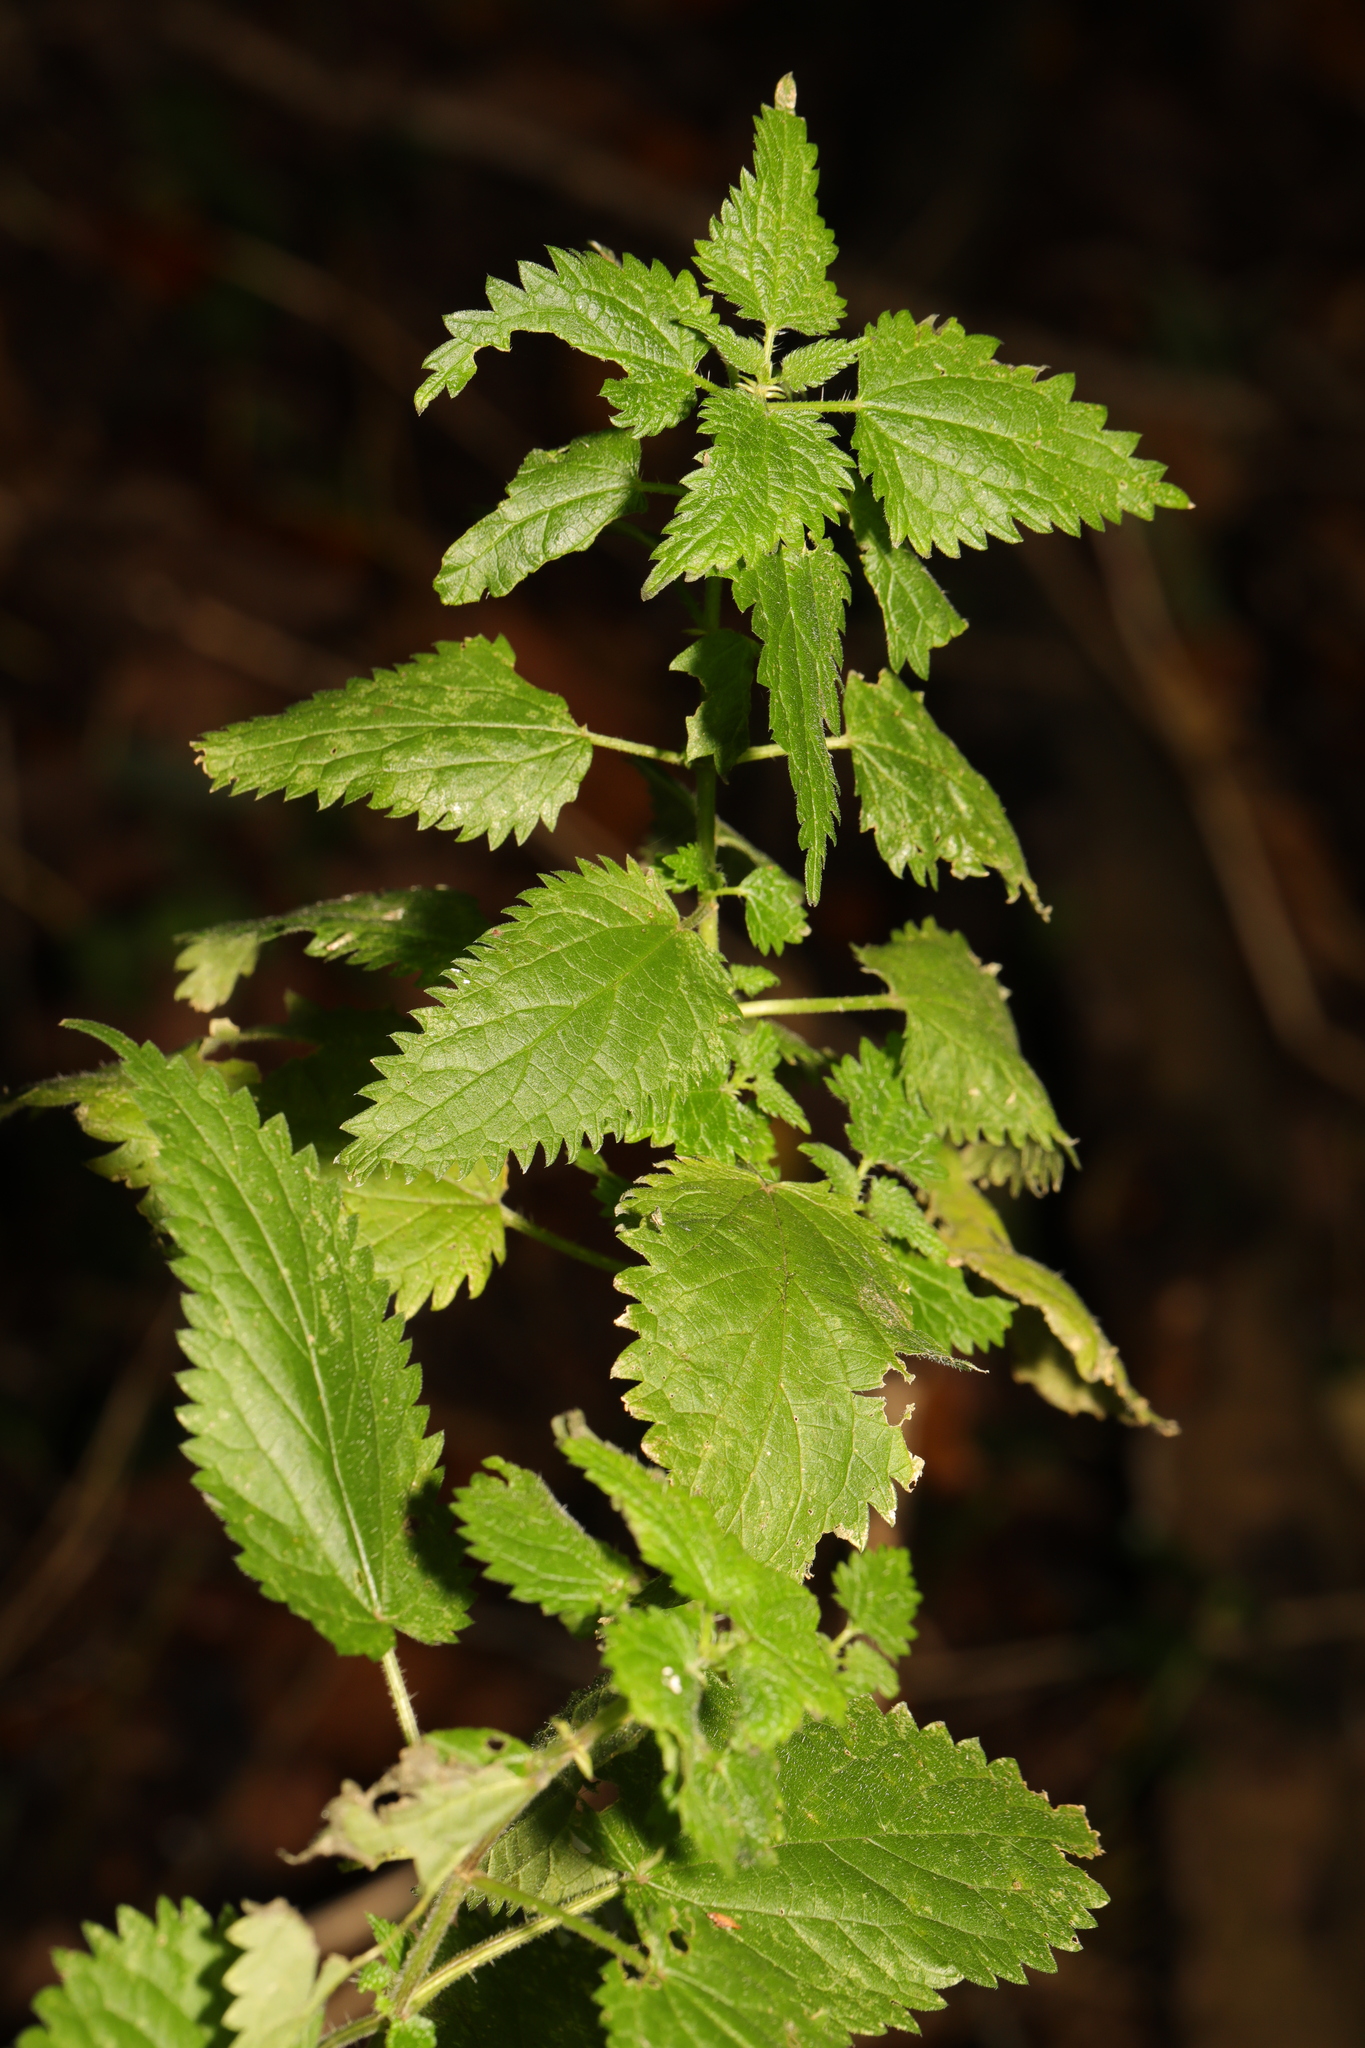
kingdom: Plantae
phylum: Tracheophyta
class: Magnoliopsida
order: Rosales
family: Urticaceae
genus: Urtica
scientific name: Urtica dioica
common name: Common nettle
